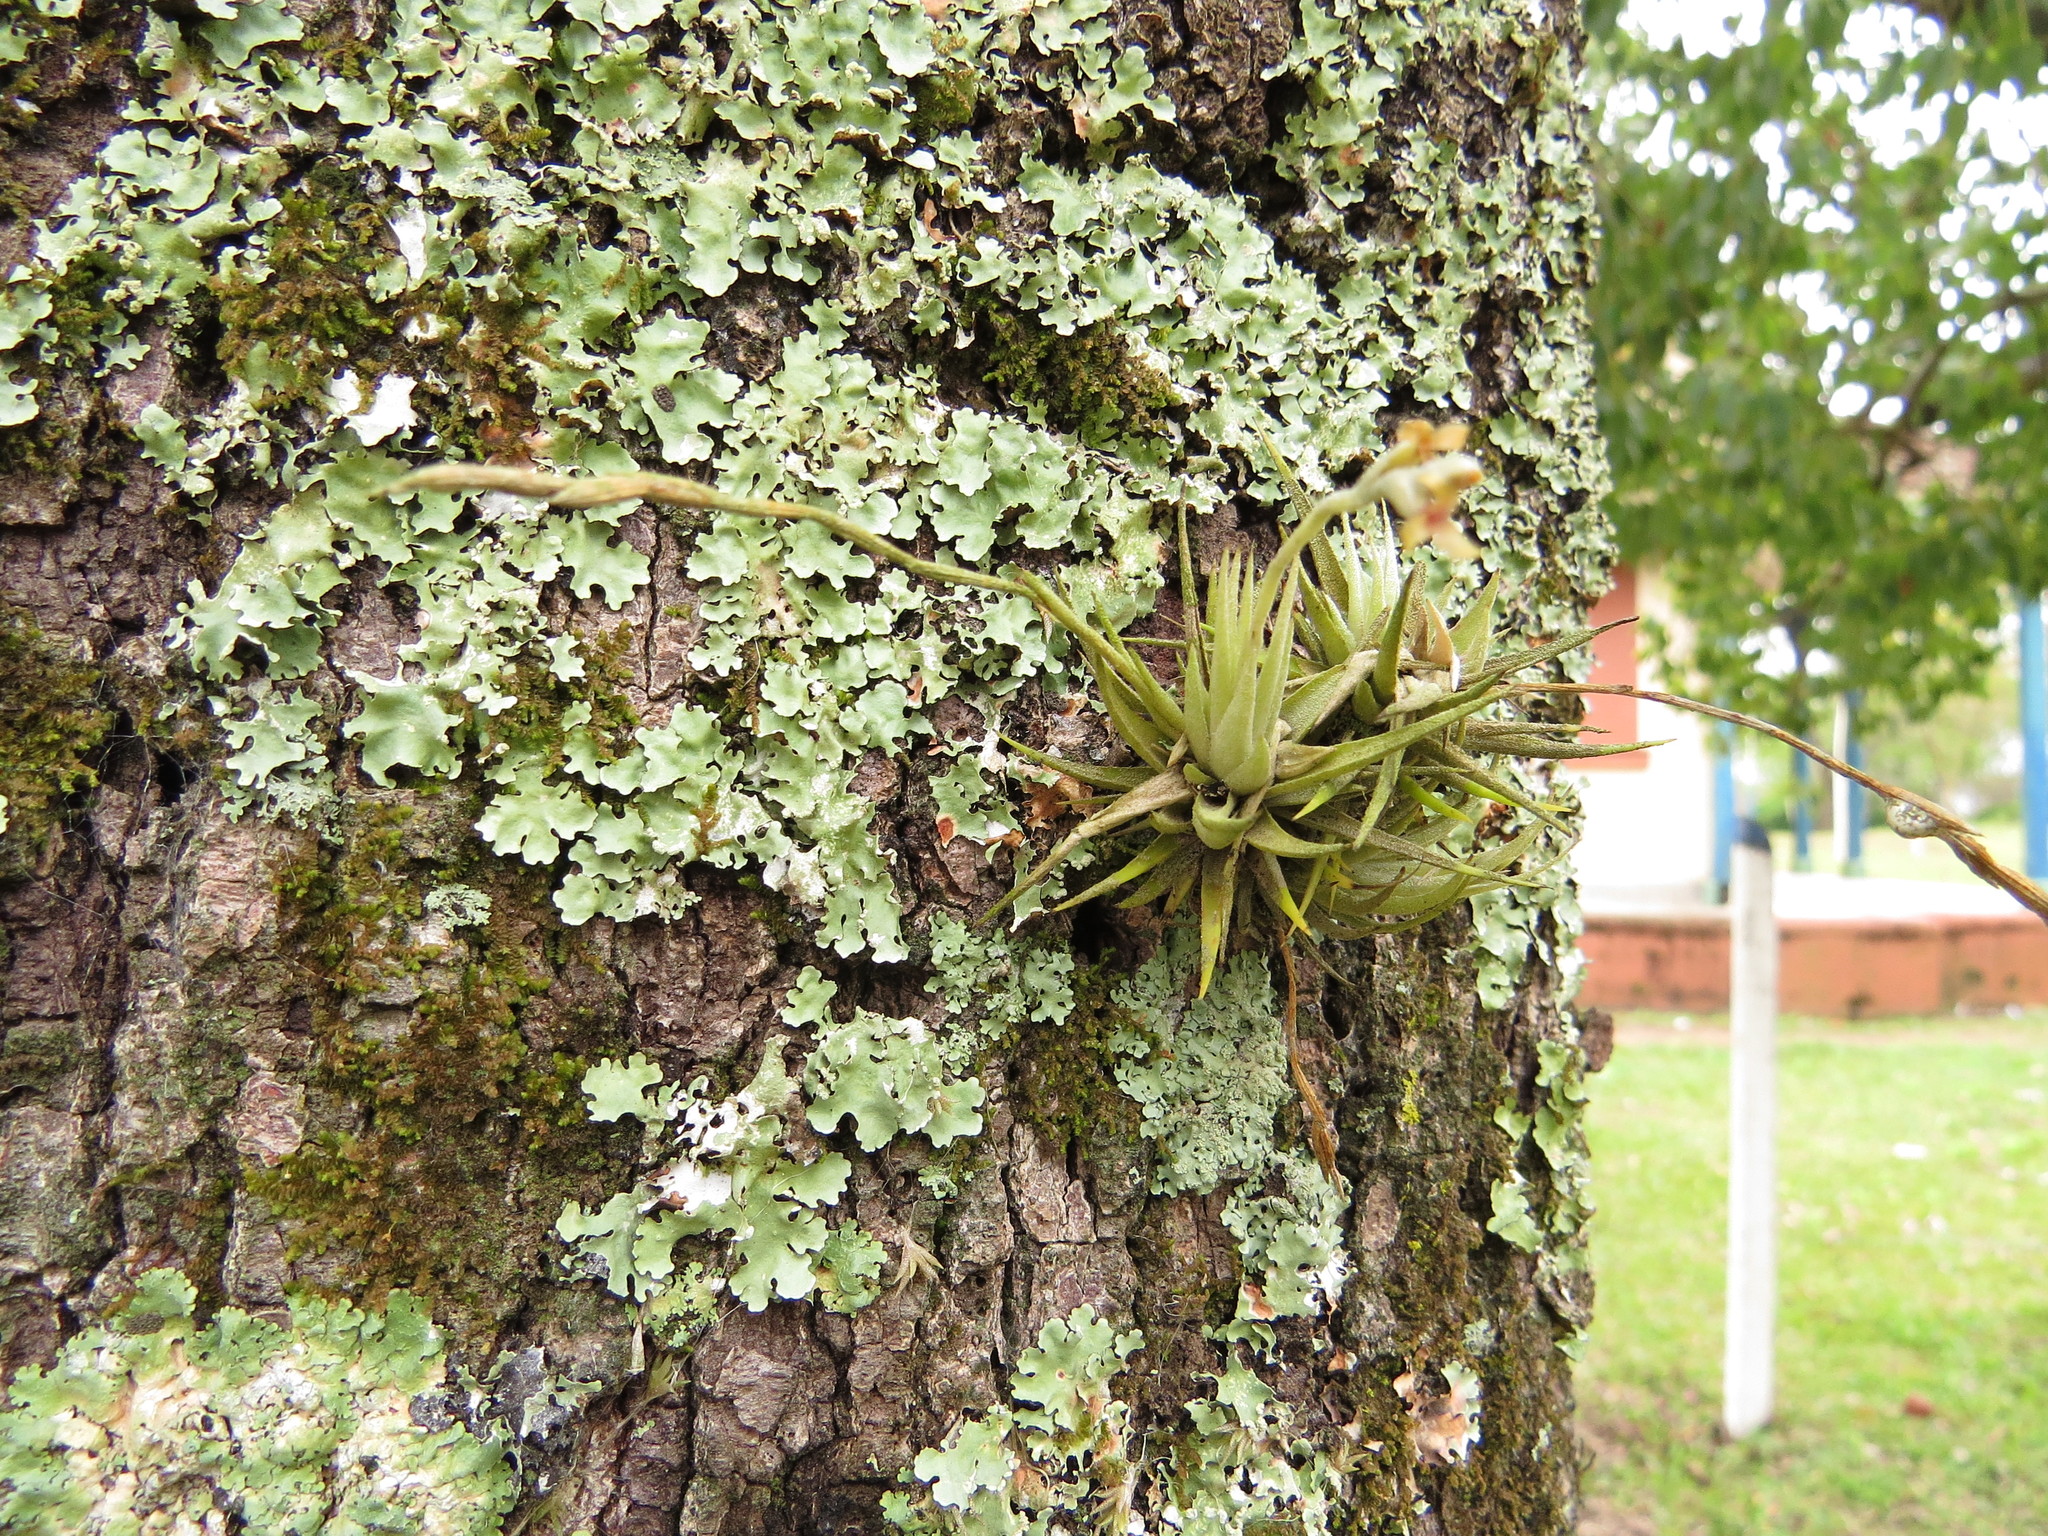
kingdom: Plantae
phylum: Tracheophyta
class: Liliopsida
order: Poales
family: Bromeliaceae
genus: Tillandsia
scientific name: Tillandsia loliacea
